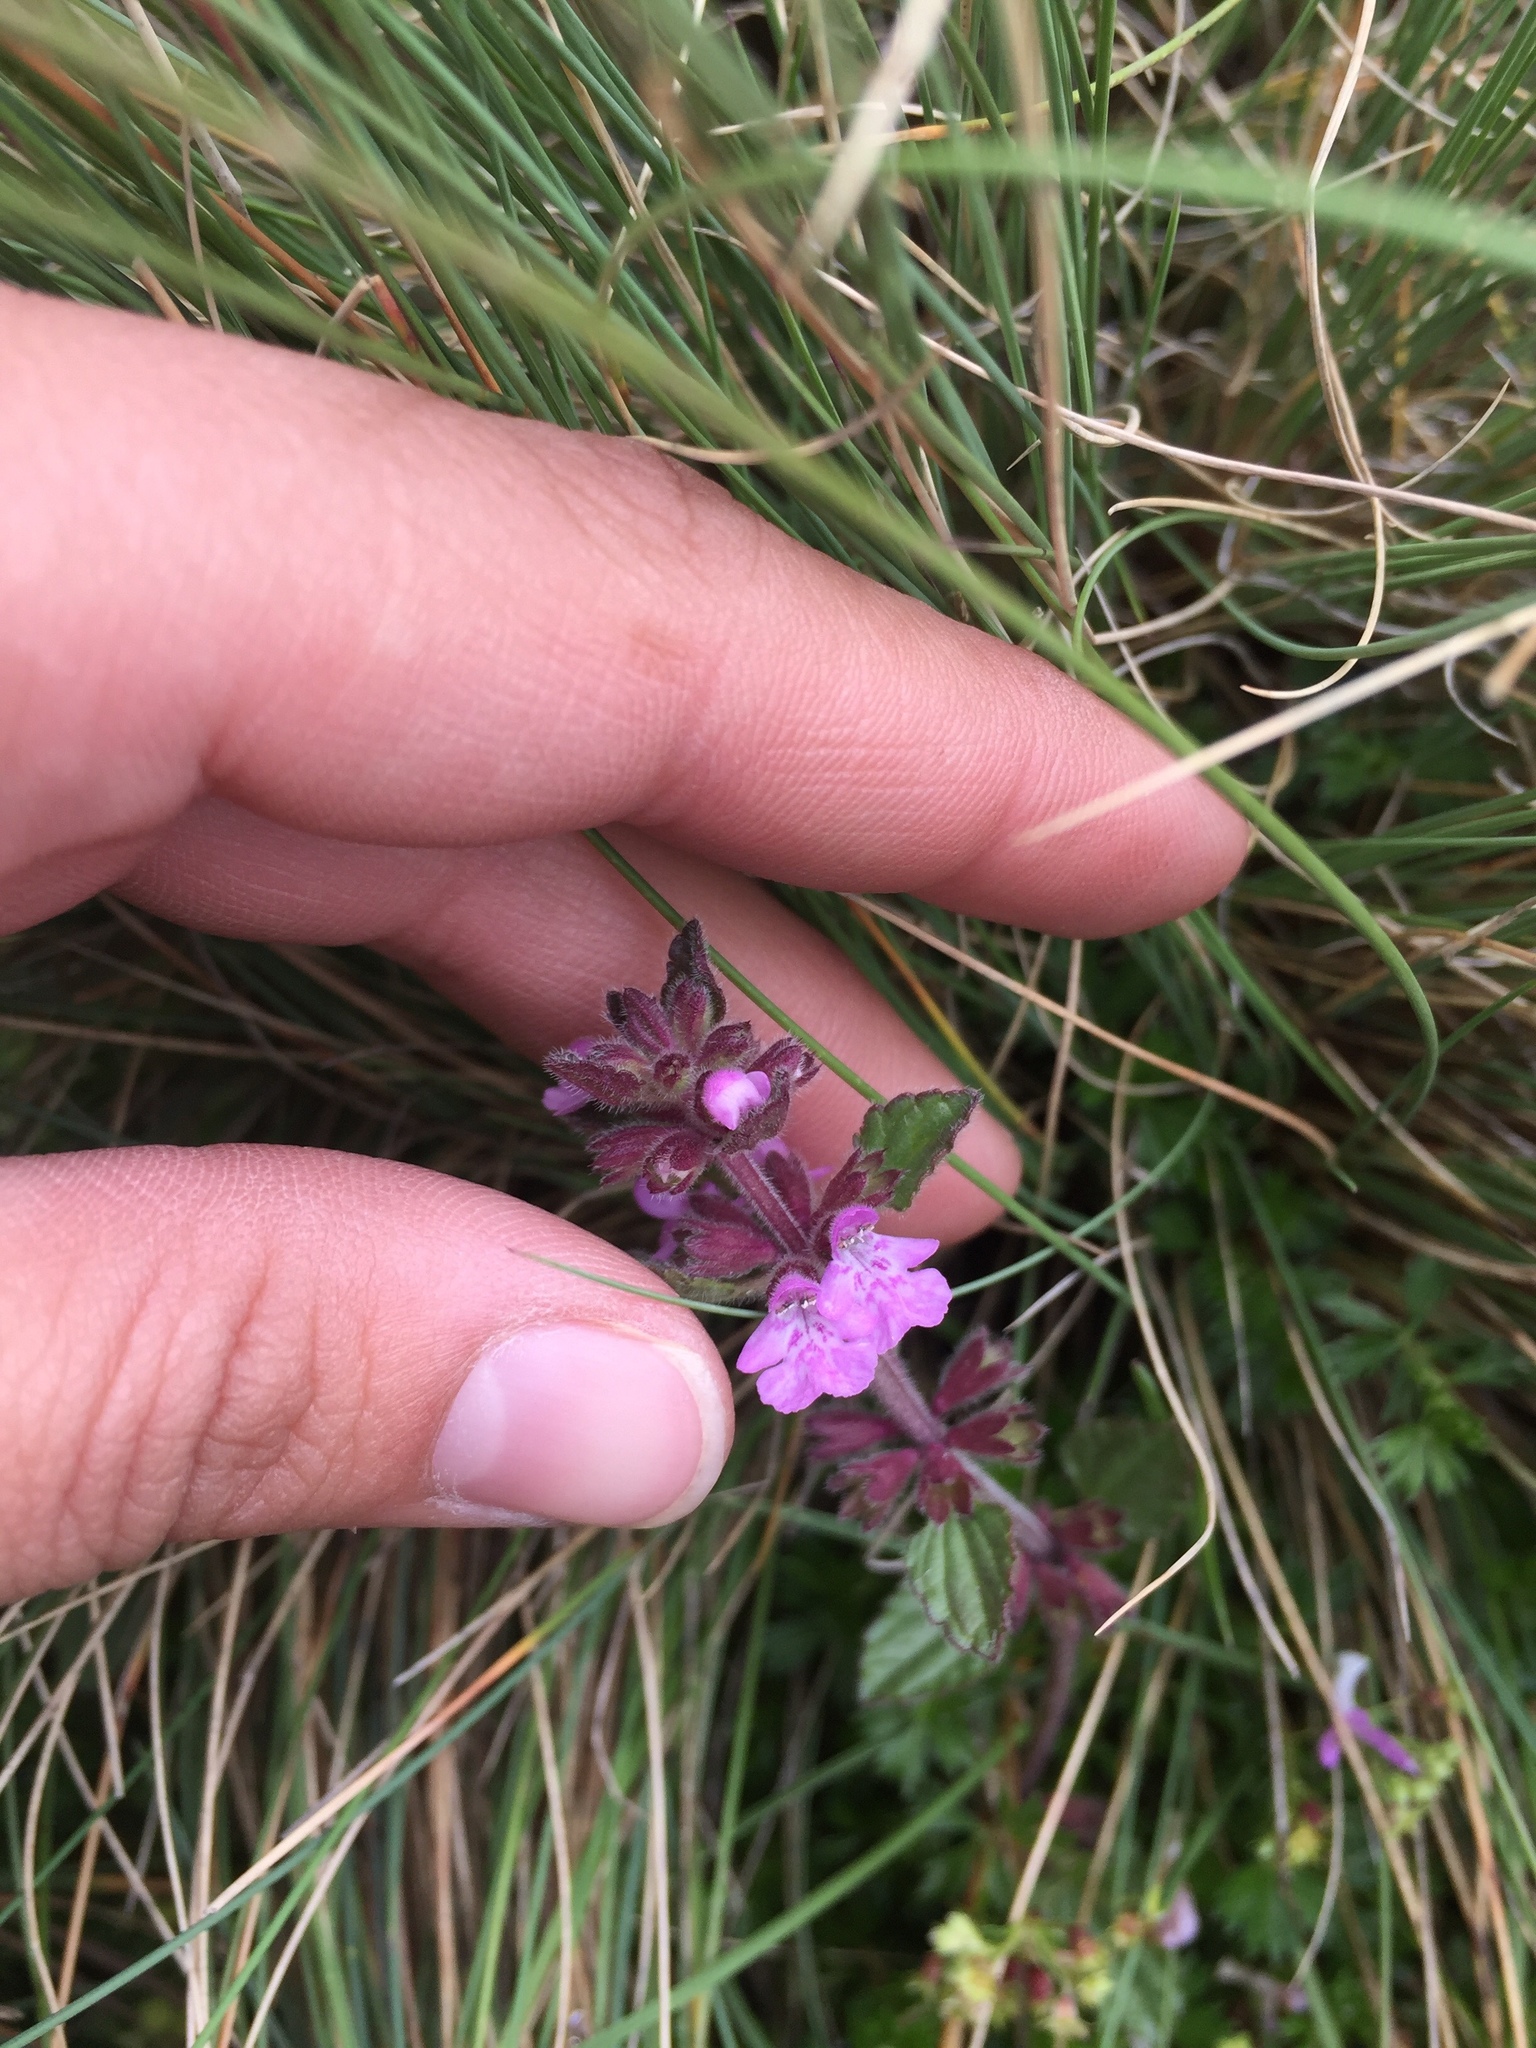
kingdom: Plantae
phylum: Tracheophyta
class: Magnoliopsida
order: Lamiales
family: Lamiaceae
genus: Stachys
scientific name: Stachys eriantha
